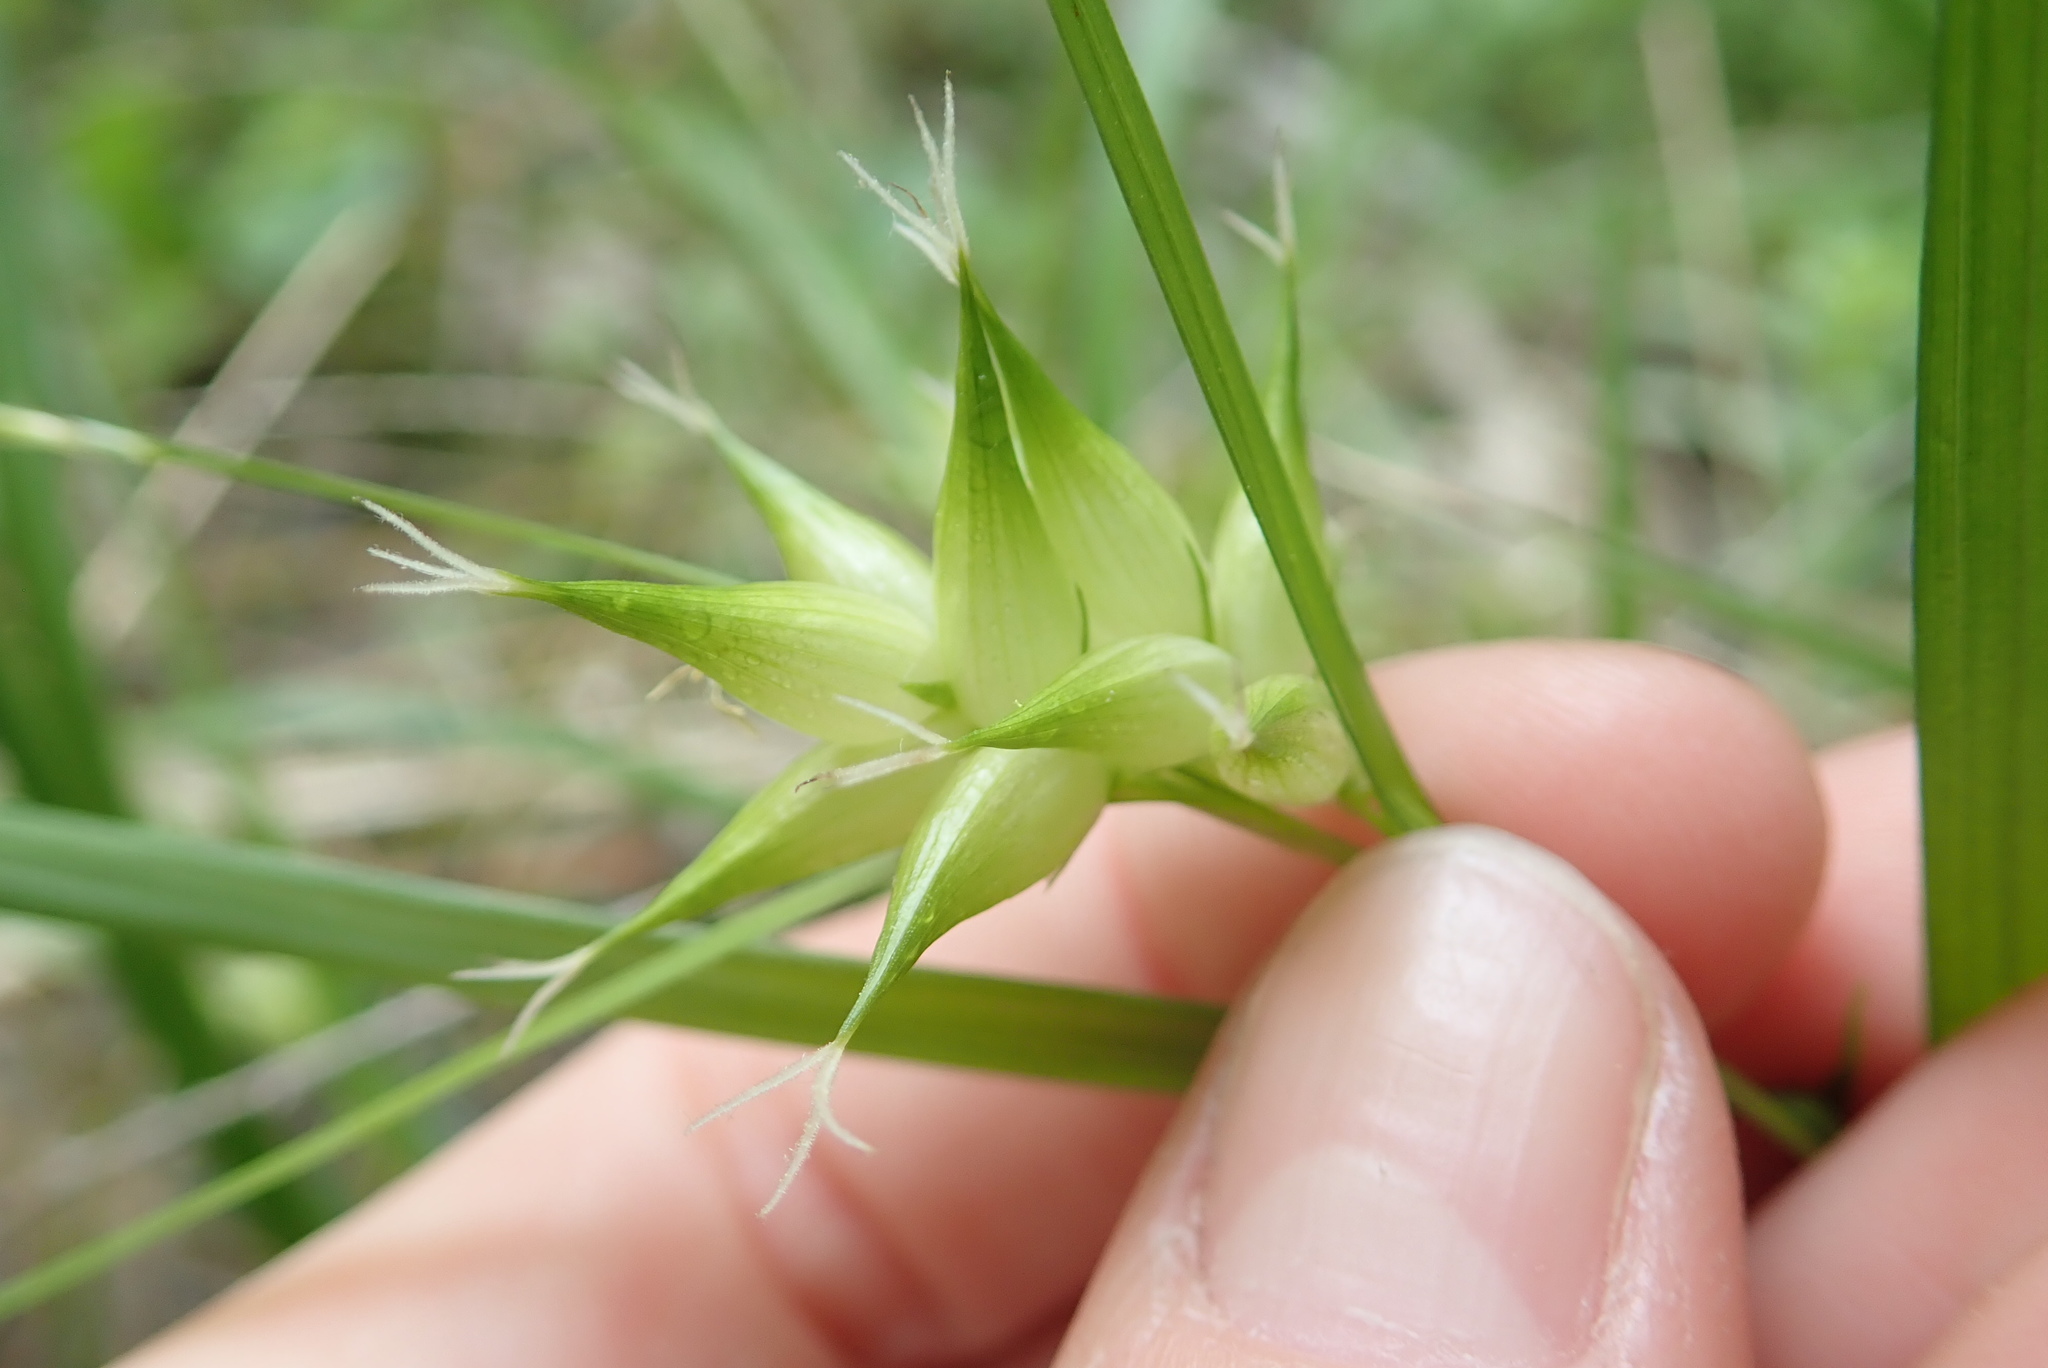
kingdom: Plantae
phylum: Tracheophyta
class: Liliopsida
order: Poales
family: Cyperaceae
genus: Carex
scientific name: Carex intumescens
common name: Greater bladder sedge
